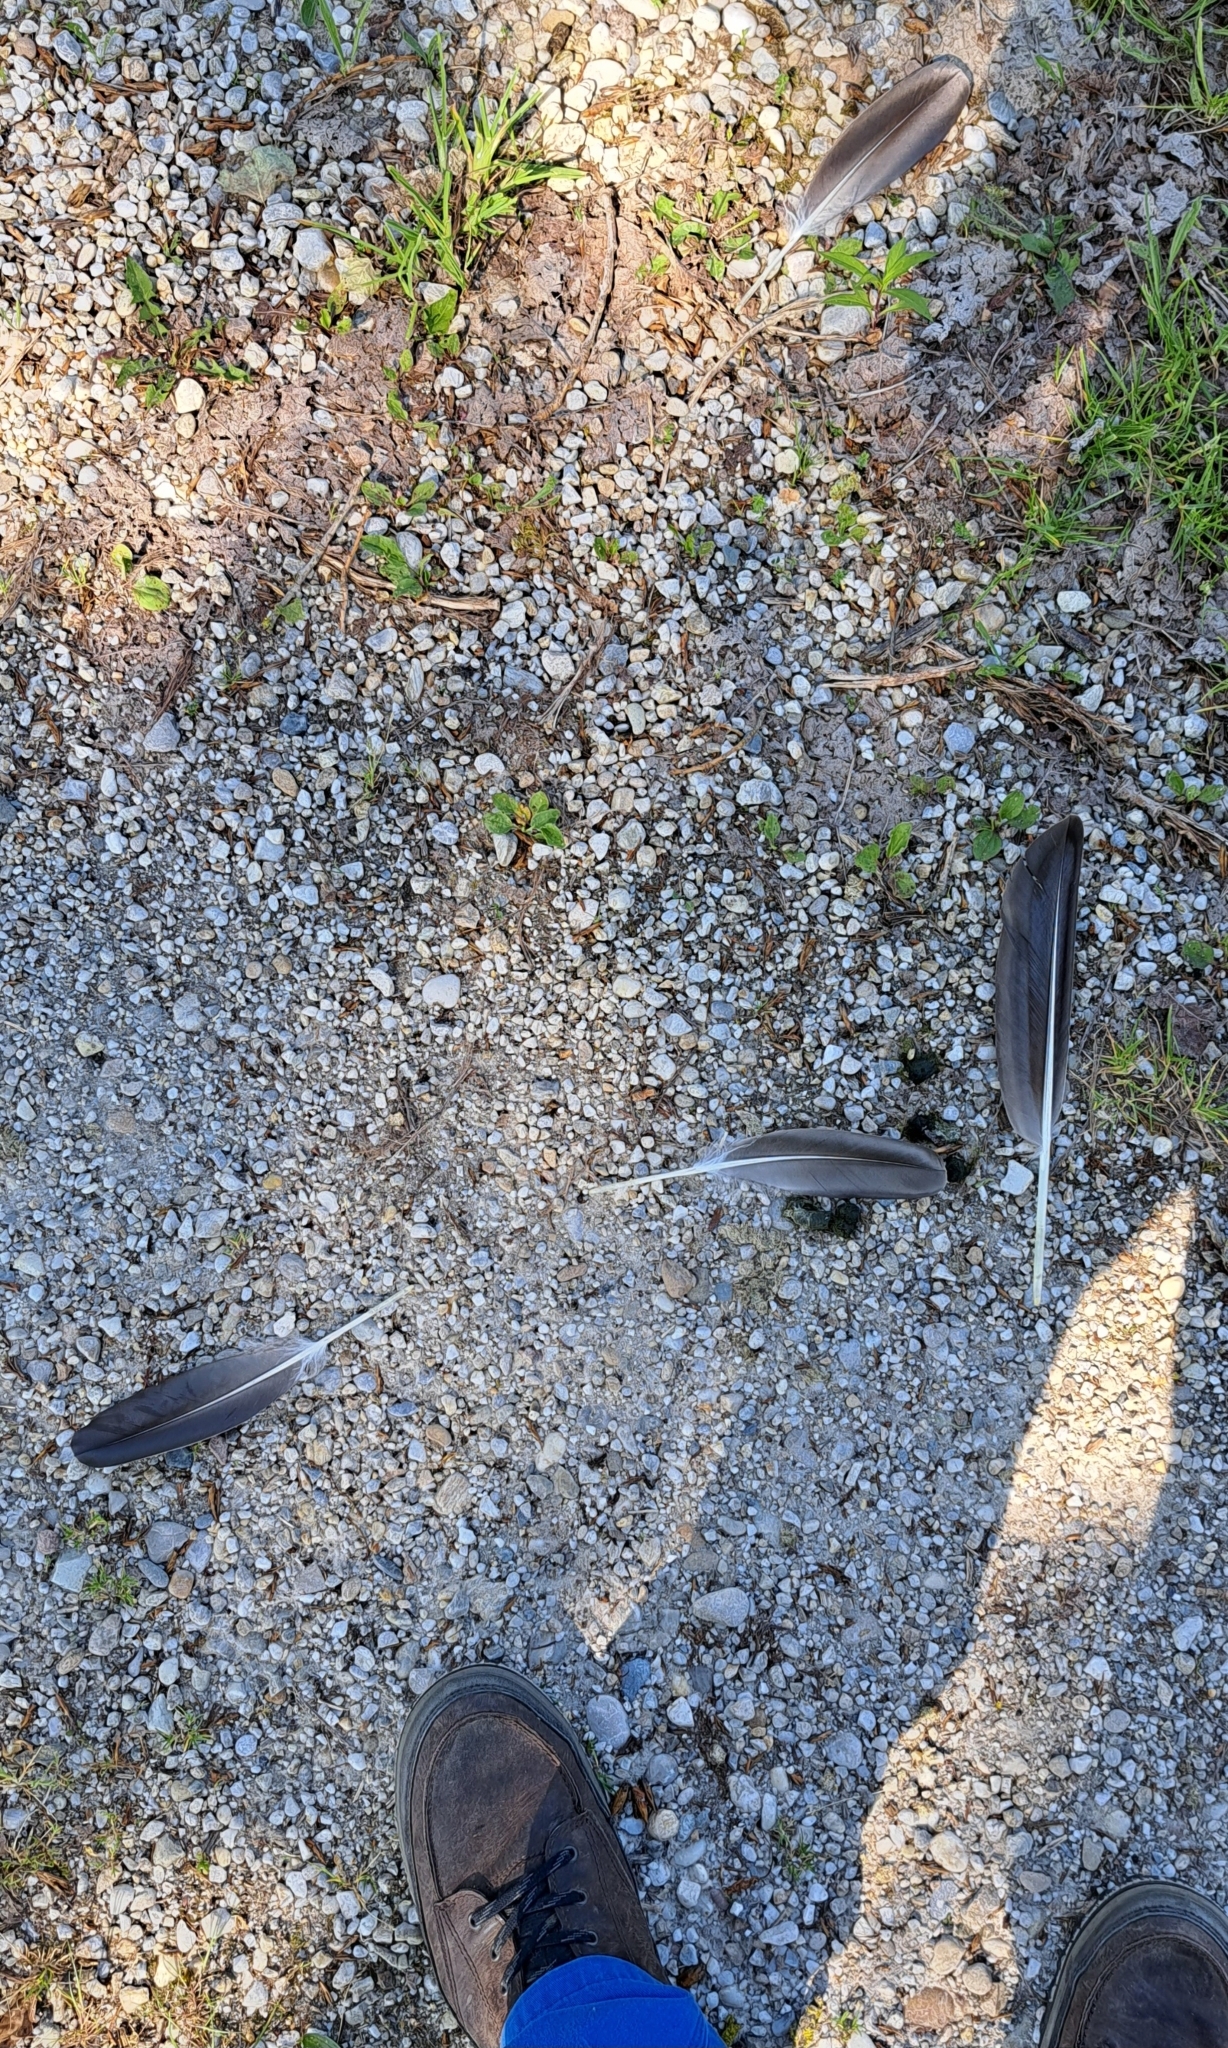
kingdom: Animalia
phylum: Chordata
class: Aves
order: Anseriformes
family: Anatidae
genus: Anser
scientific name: Anser anser
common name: Greylag goose
